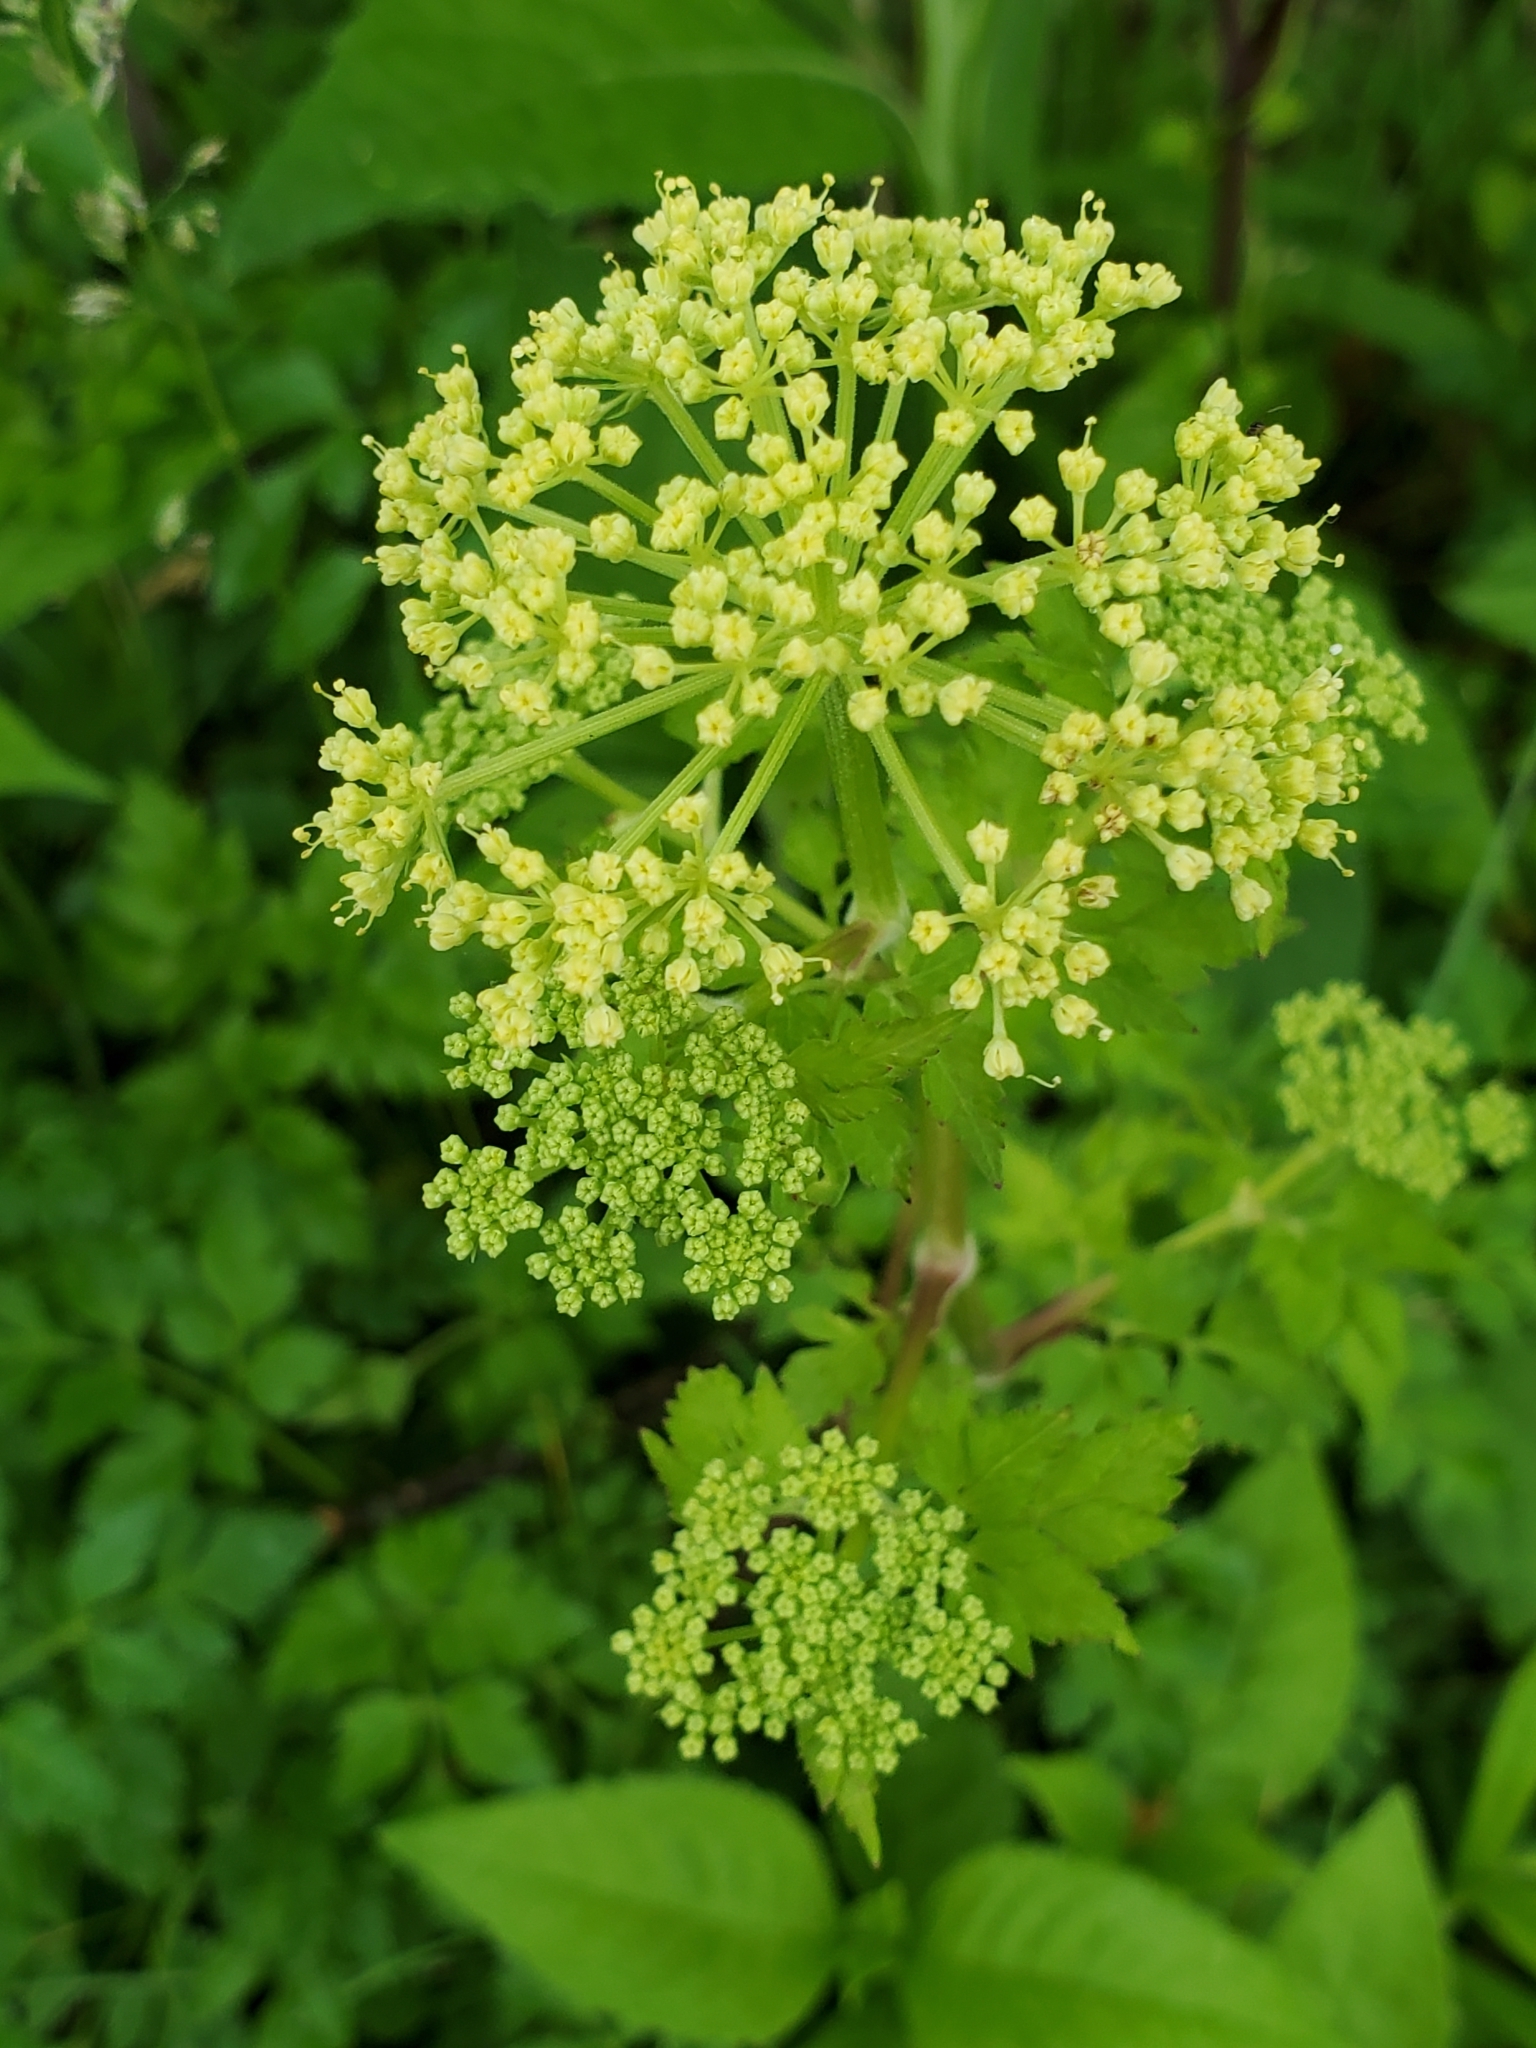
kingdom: Plantae
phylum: Tracheophyta
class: Magnoliopsida
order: Apiales
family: Apiaceae
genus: Thaspium
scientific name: Thaspium barbinode
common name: Bearded meadow-parsnip
